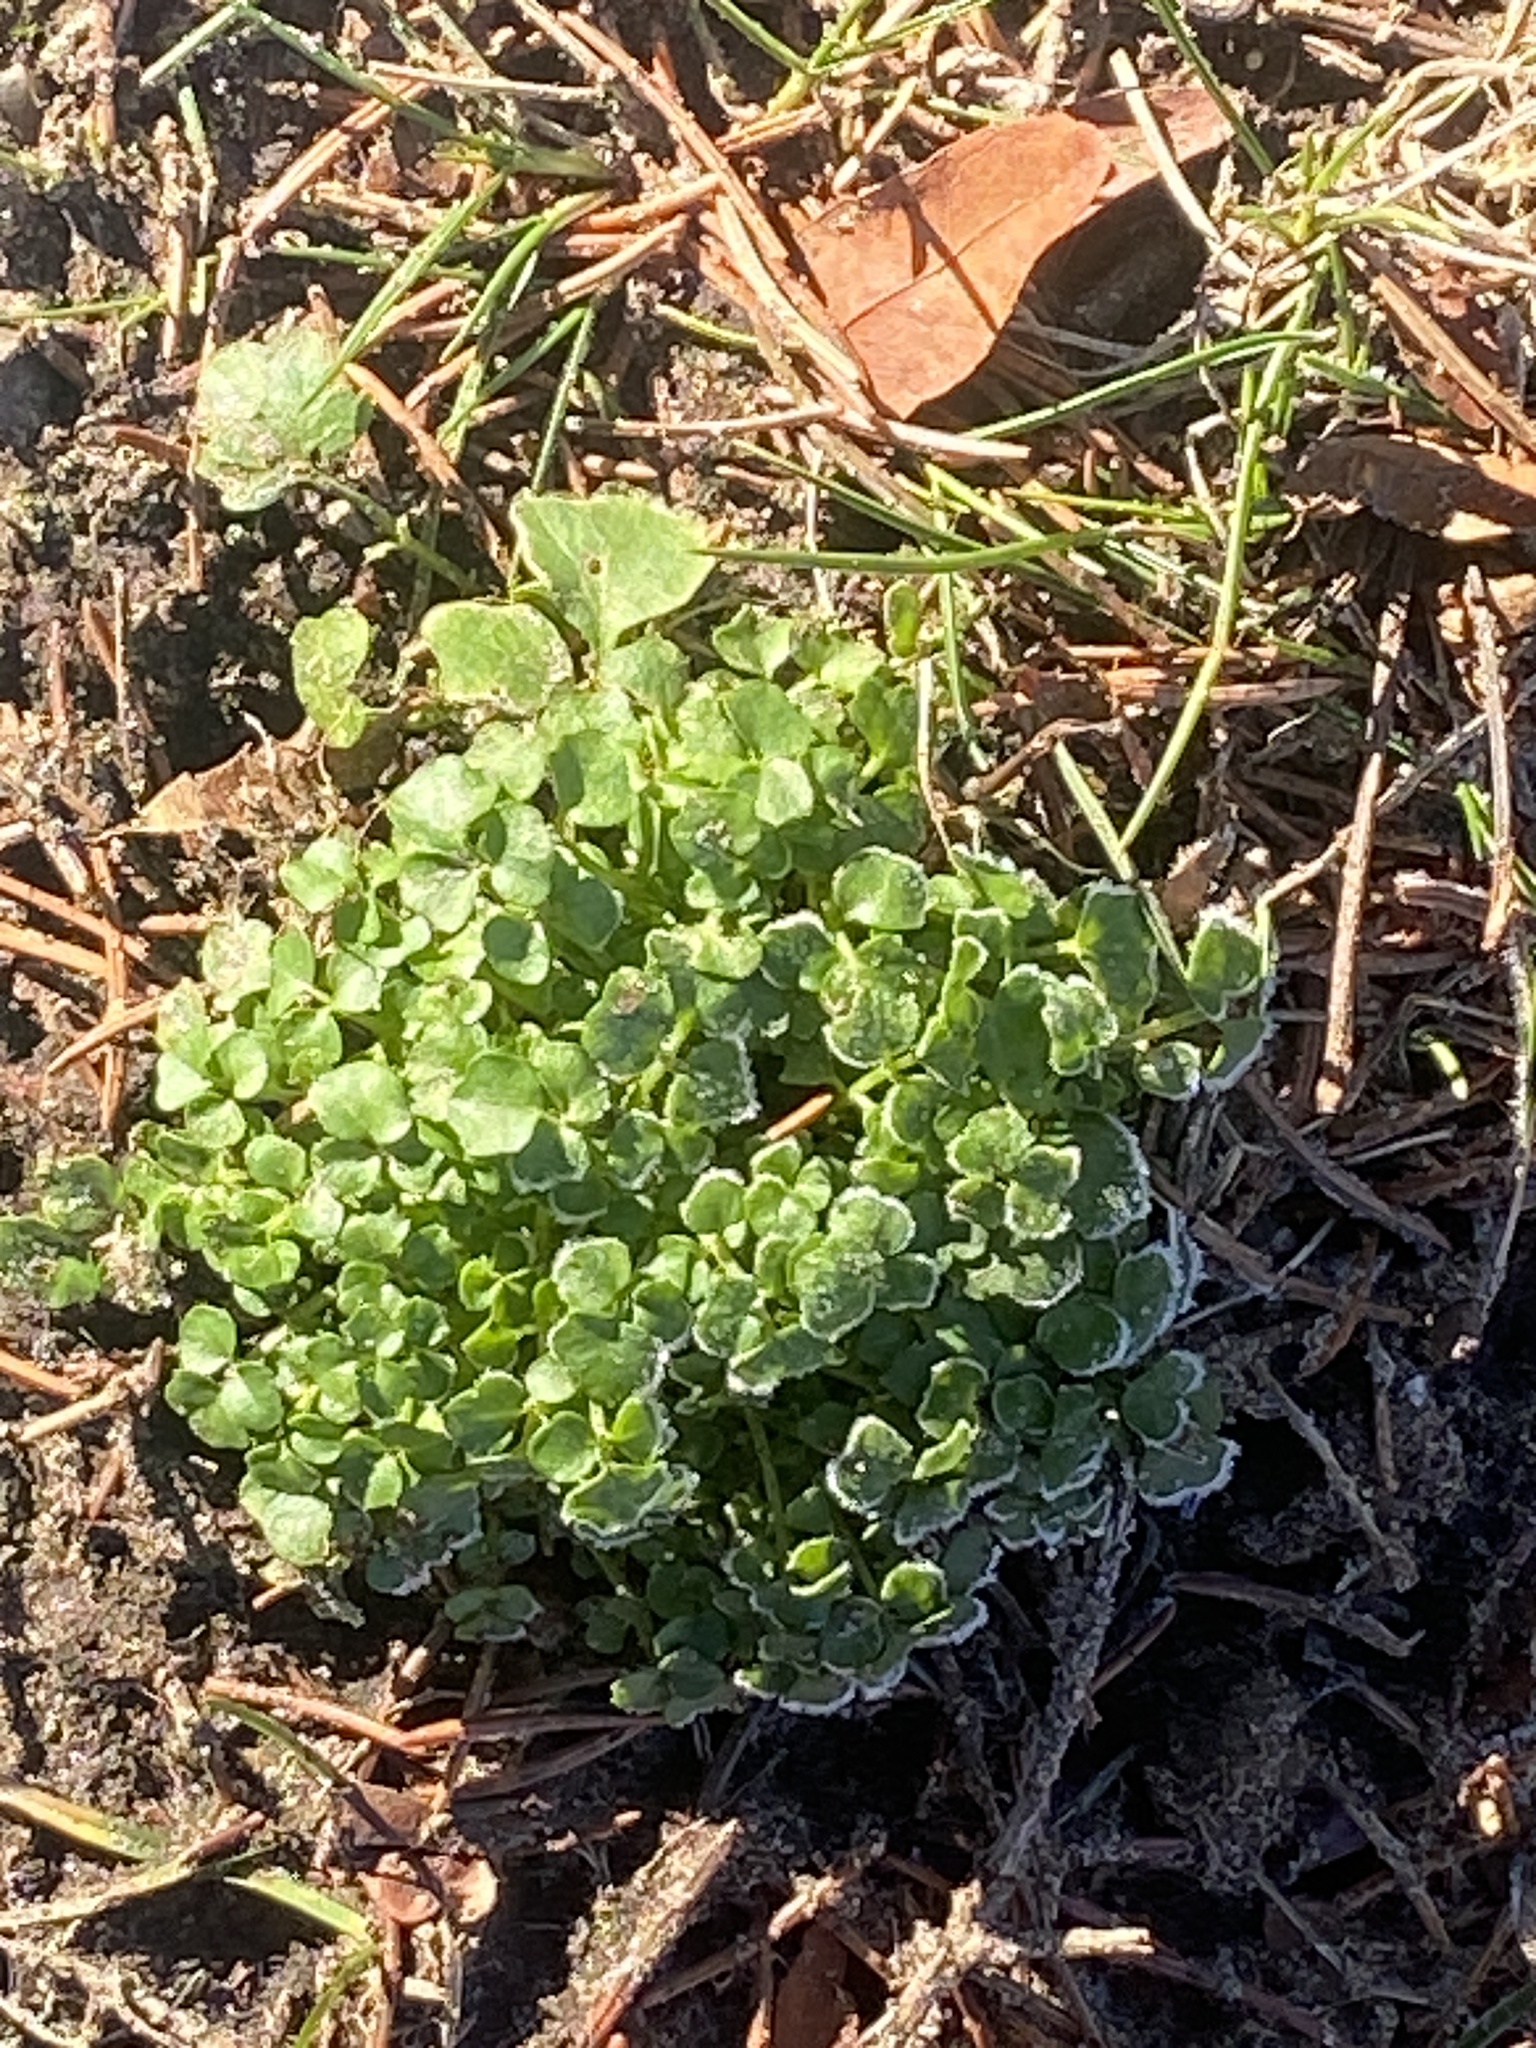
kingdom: Plantae
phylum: Tracheophyta
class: Magnoliopsida
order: Brassicales
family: Brassicaceae
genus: Cardamine
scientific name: Cardamine hirsuta
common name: Hairy bittercress
